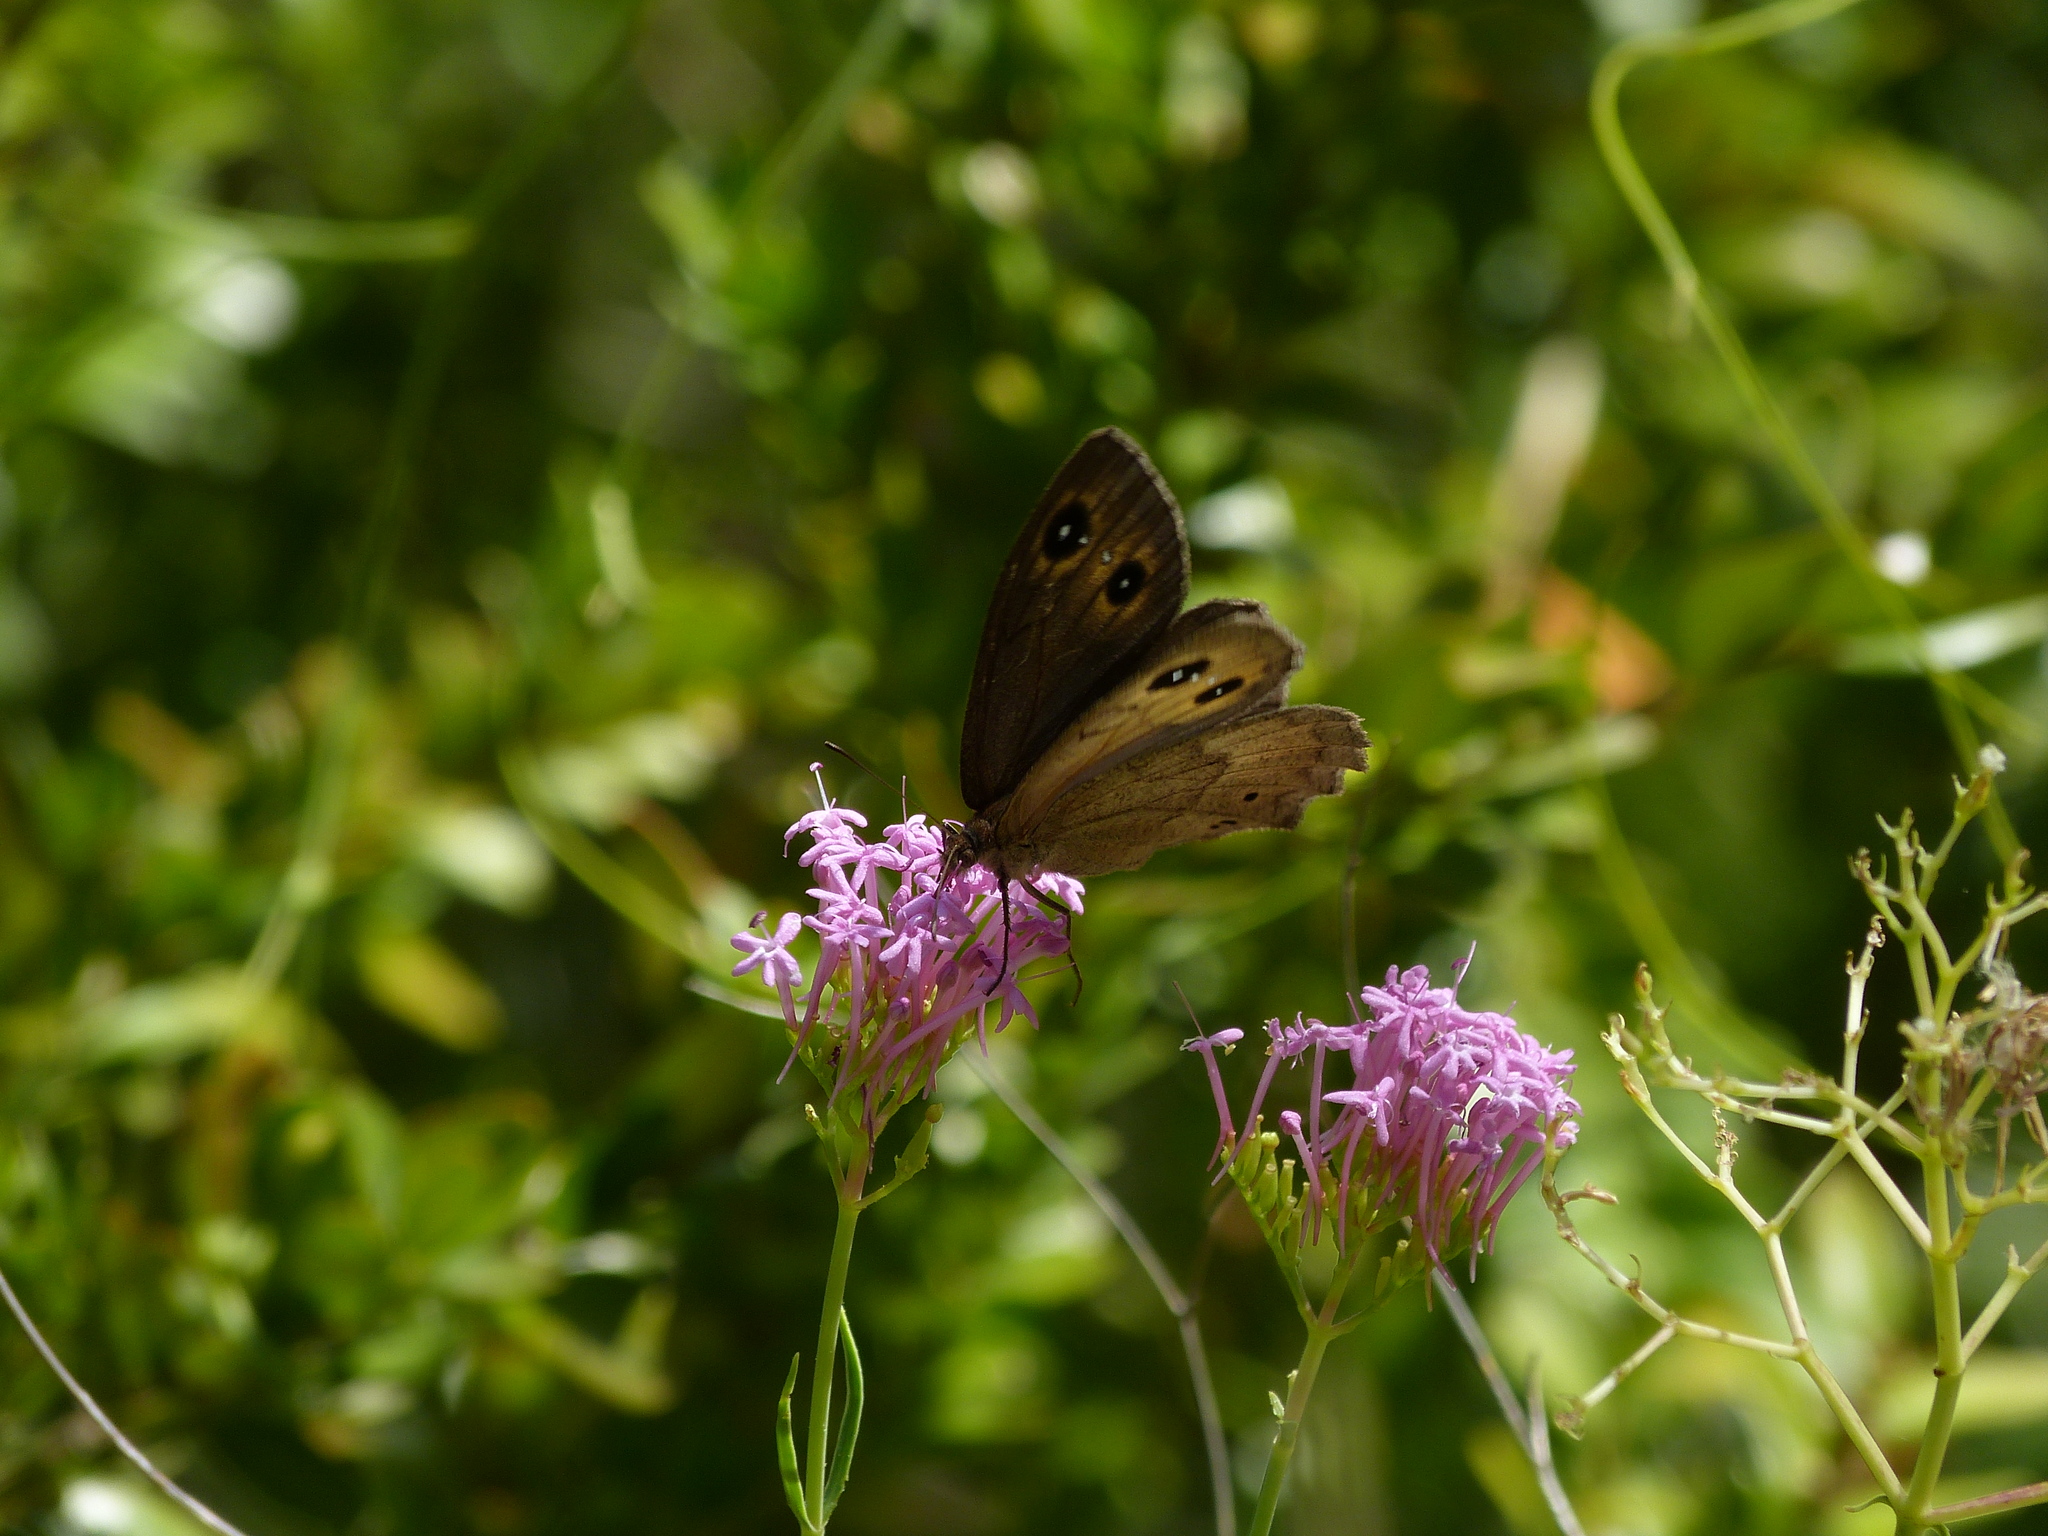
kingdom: Animalia
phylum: Arthropoda
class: Insecta
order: Lepidoptera
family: Nymphalidae
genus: Satyrus
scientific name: Satyrus ferula
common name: Great sooty satyr
